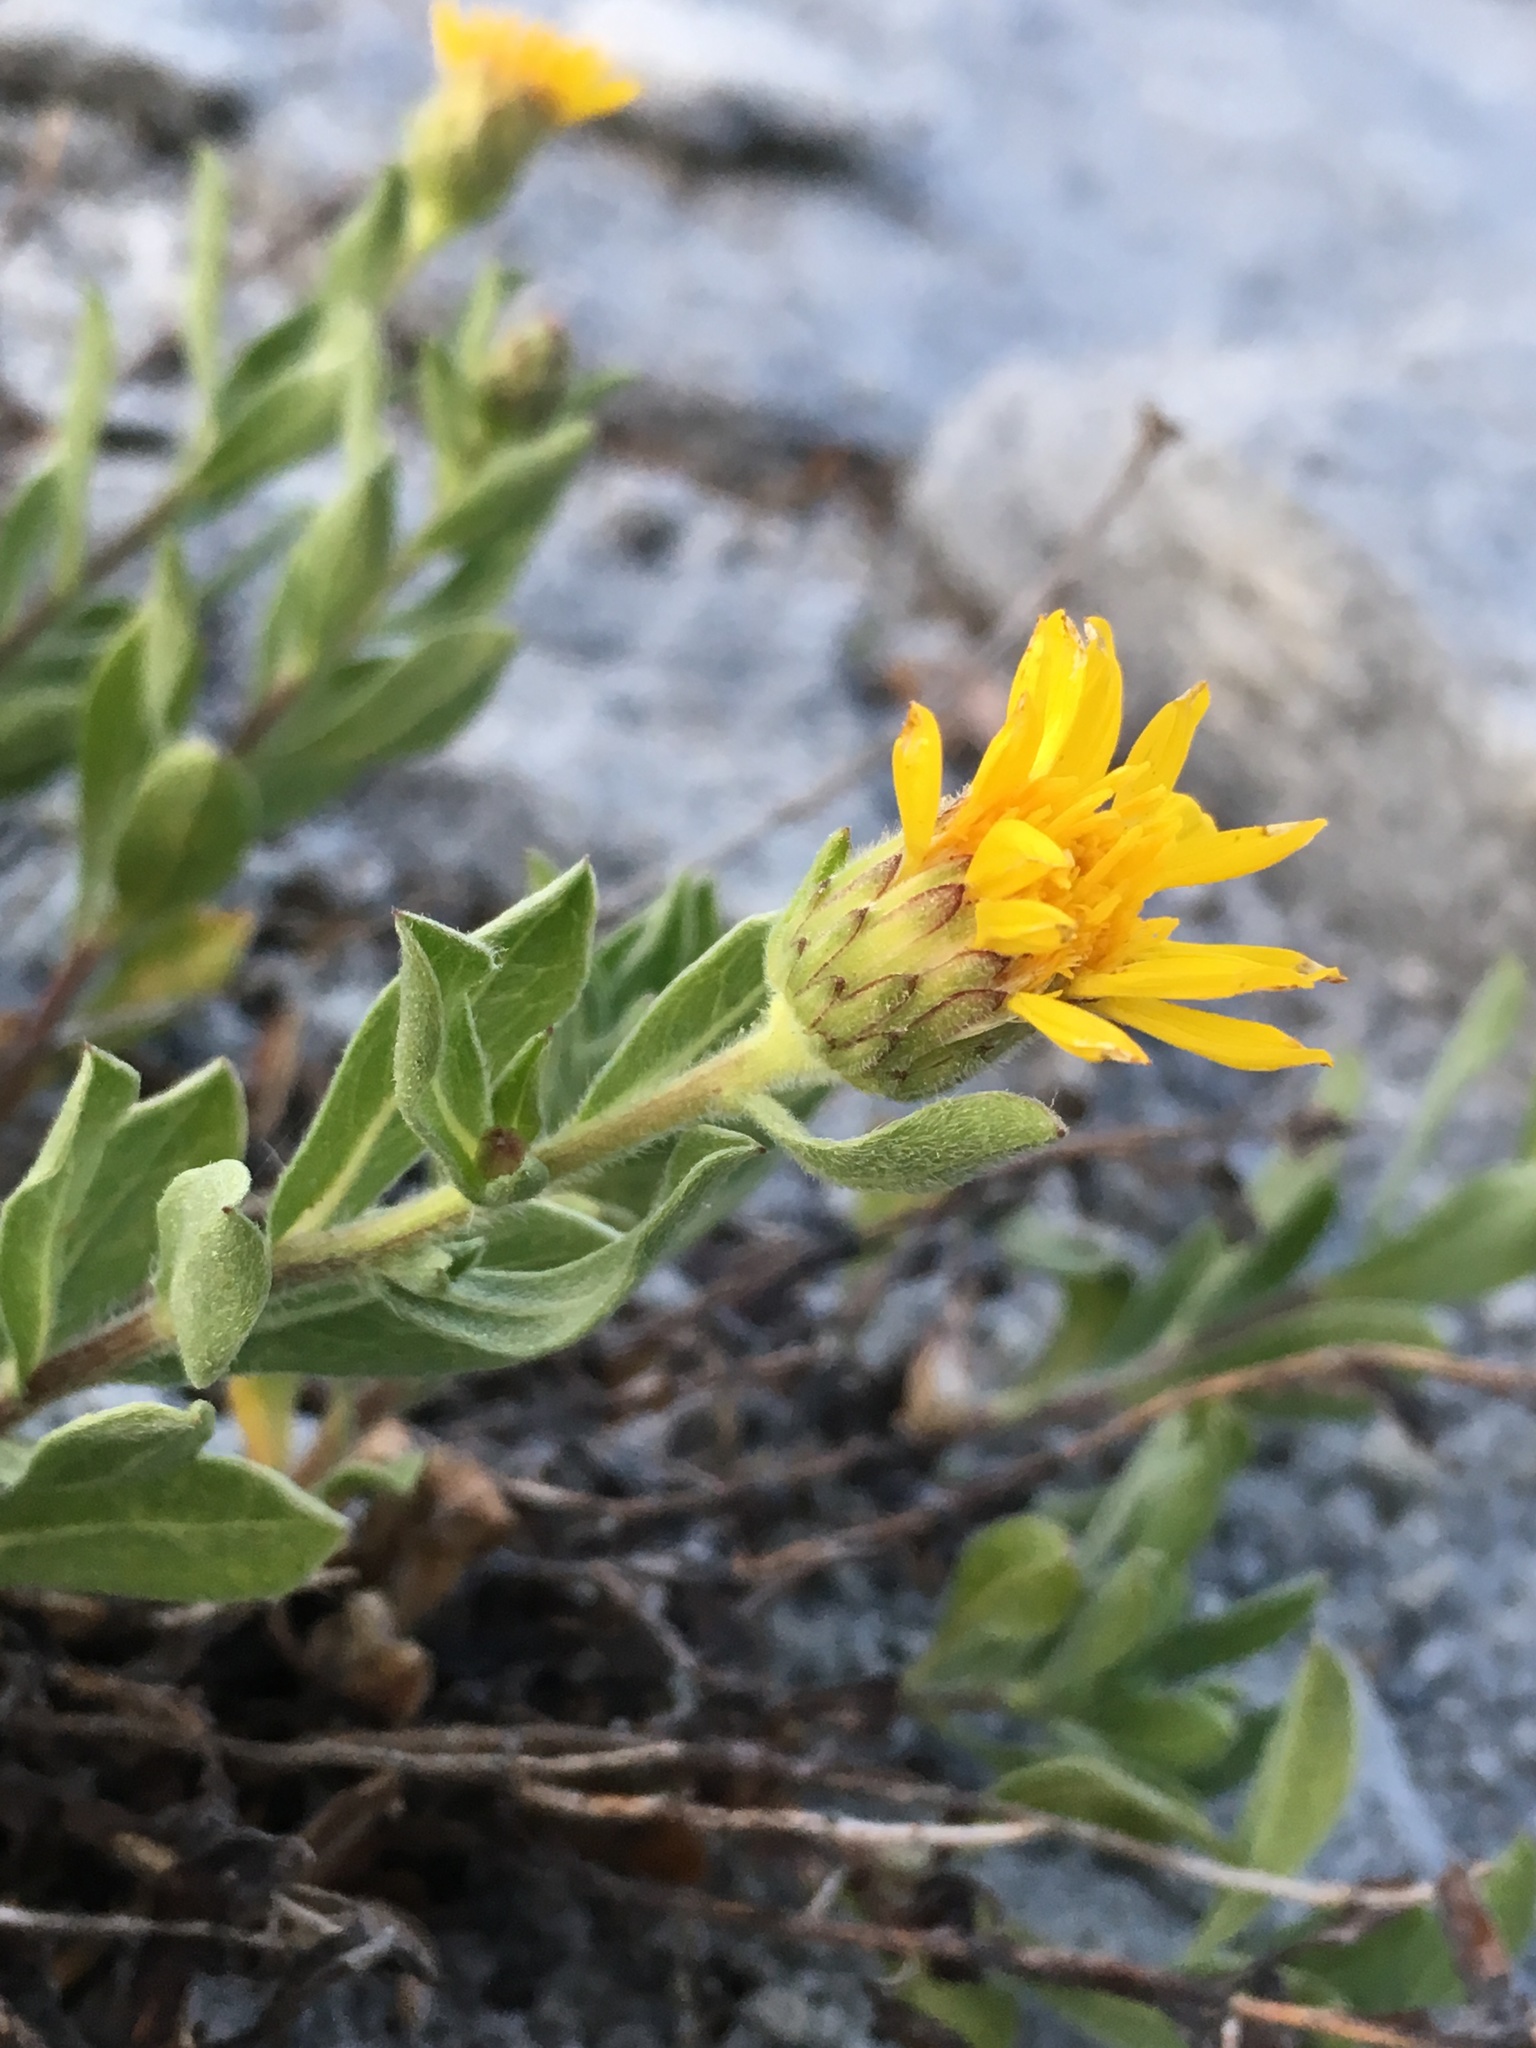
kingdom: Plantae
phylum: Tracheophyta
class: Magnoliopsida
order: Asterales
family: Asteraceae
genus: Heterotheca
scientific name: Heterotheca orovillosa
